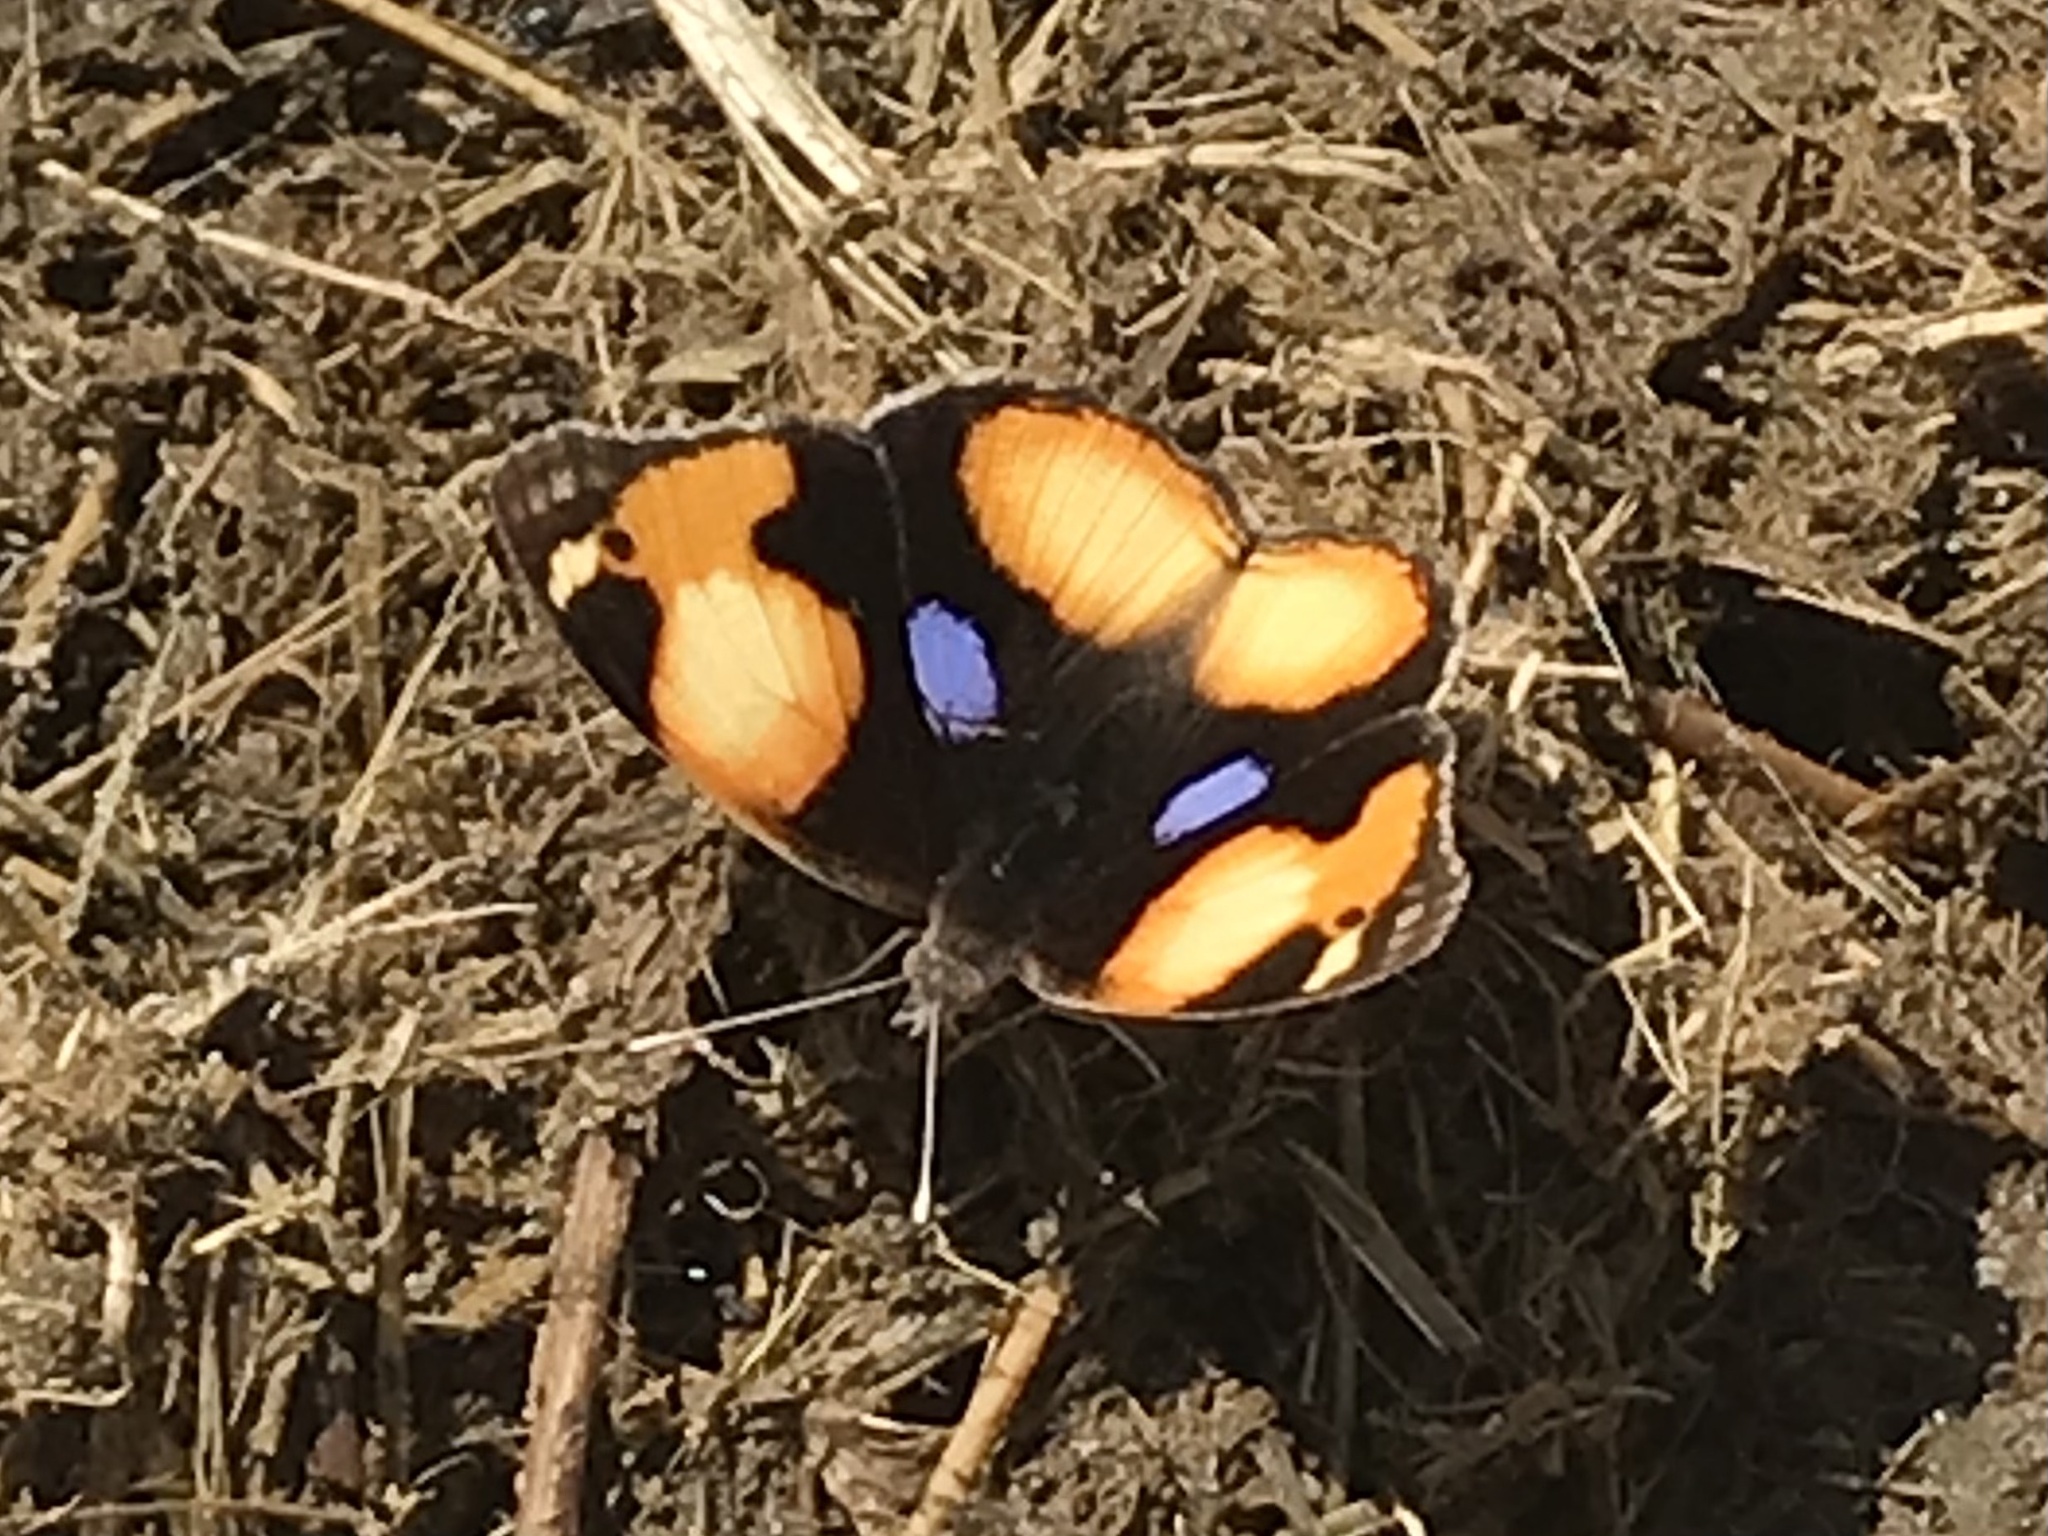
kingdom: Animalia
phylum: Arthropoda
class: Insecta
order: Lepidoptera
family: Nymphalidae
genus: Junonia
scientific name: Junonia hierta
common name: Yellow pansy
